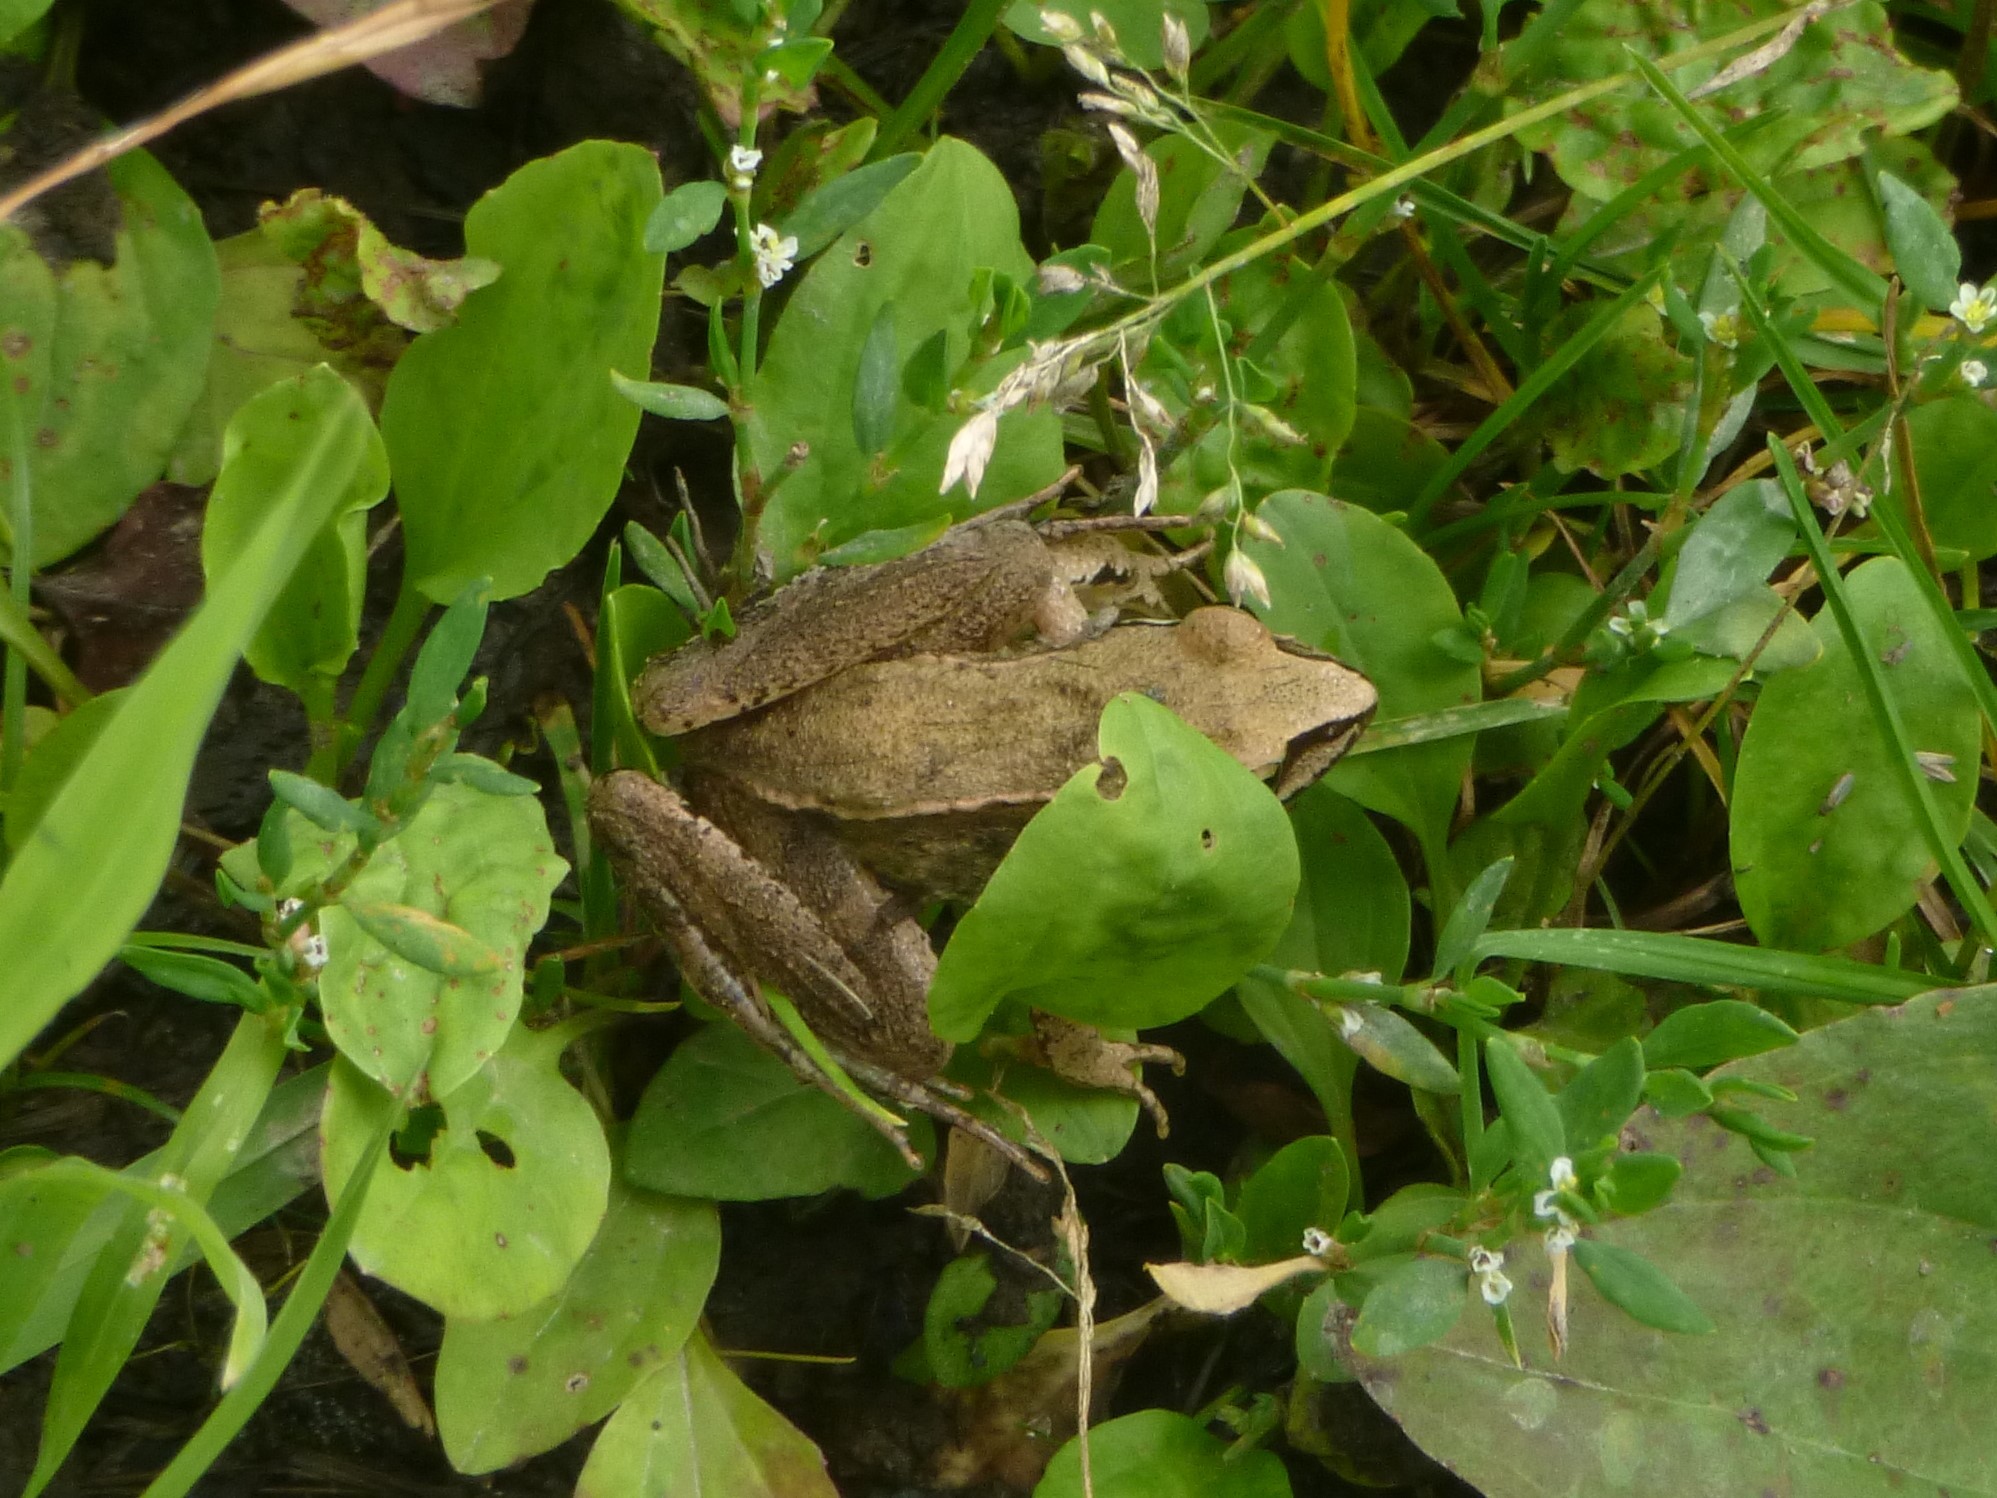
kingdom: Animalia
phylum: Chordata
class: Amphibia
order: Anura
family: Ranidae
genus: Rana
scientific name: Rana dalmatina
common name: Agile frog
